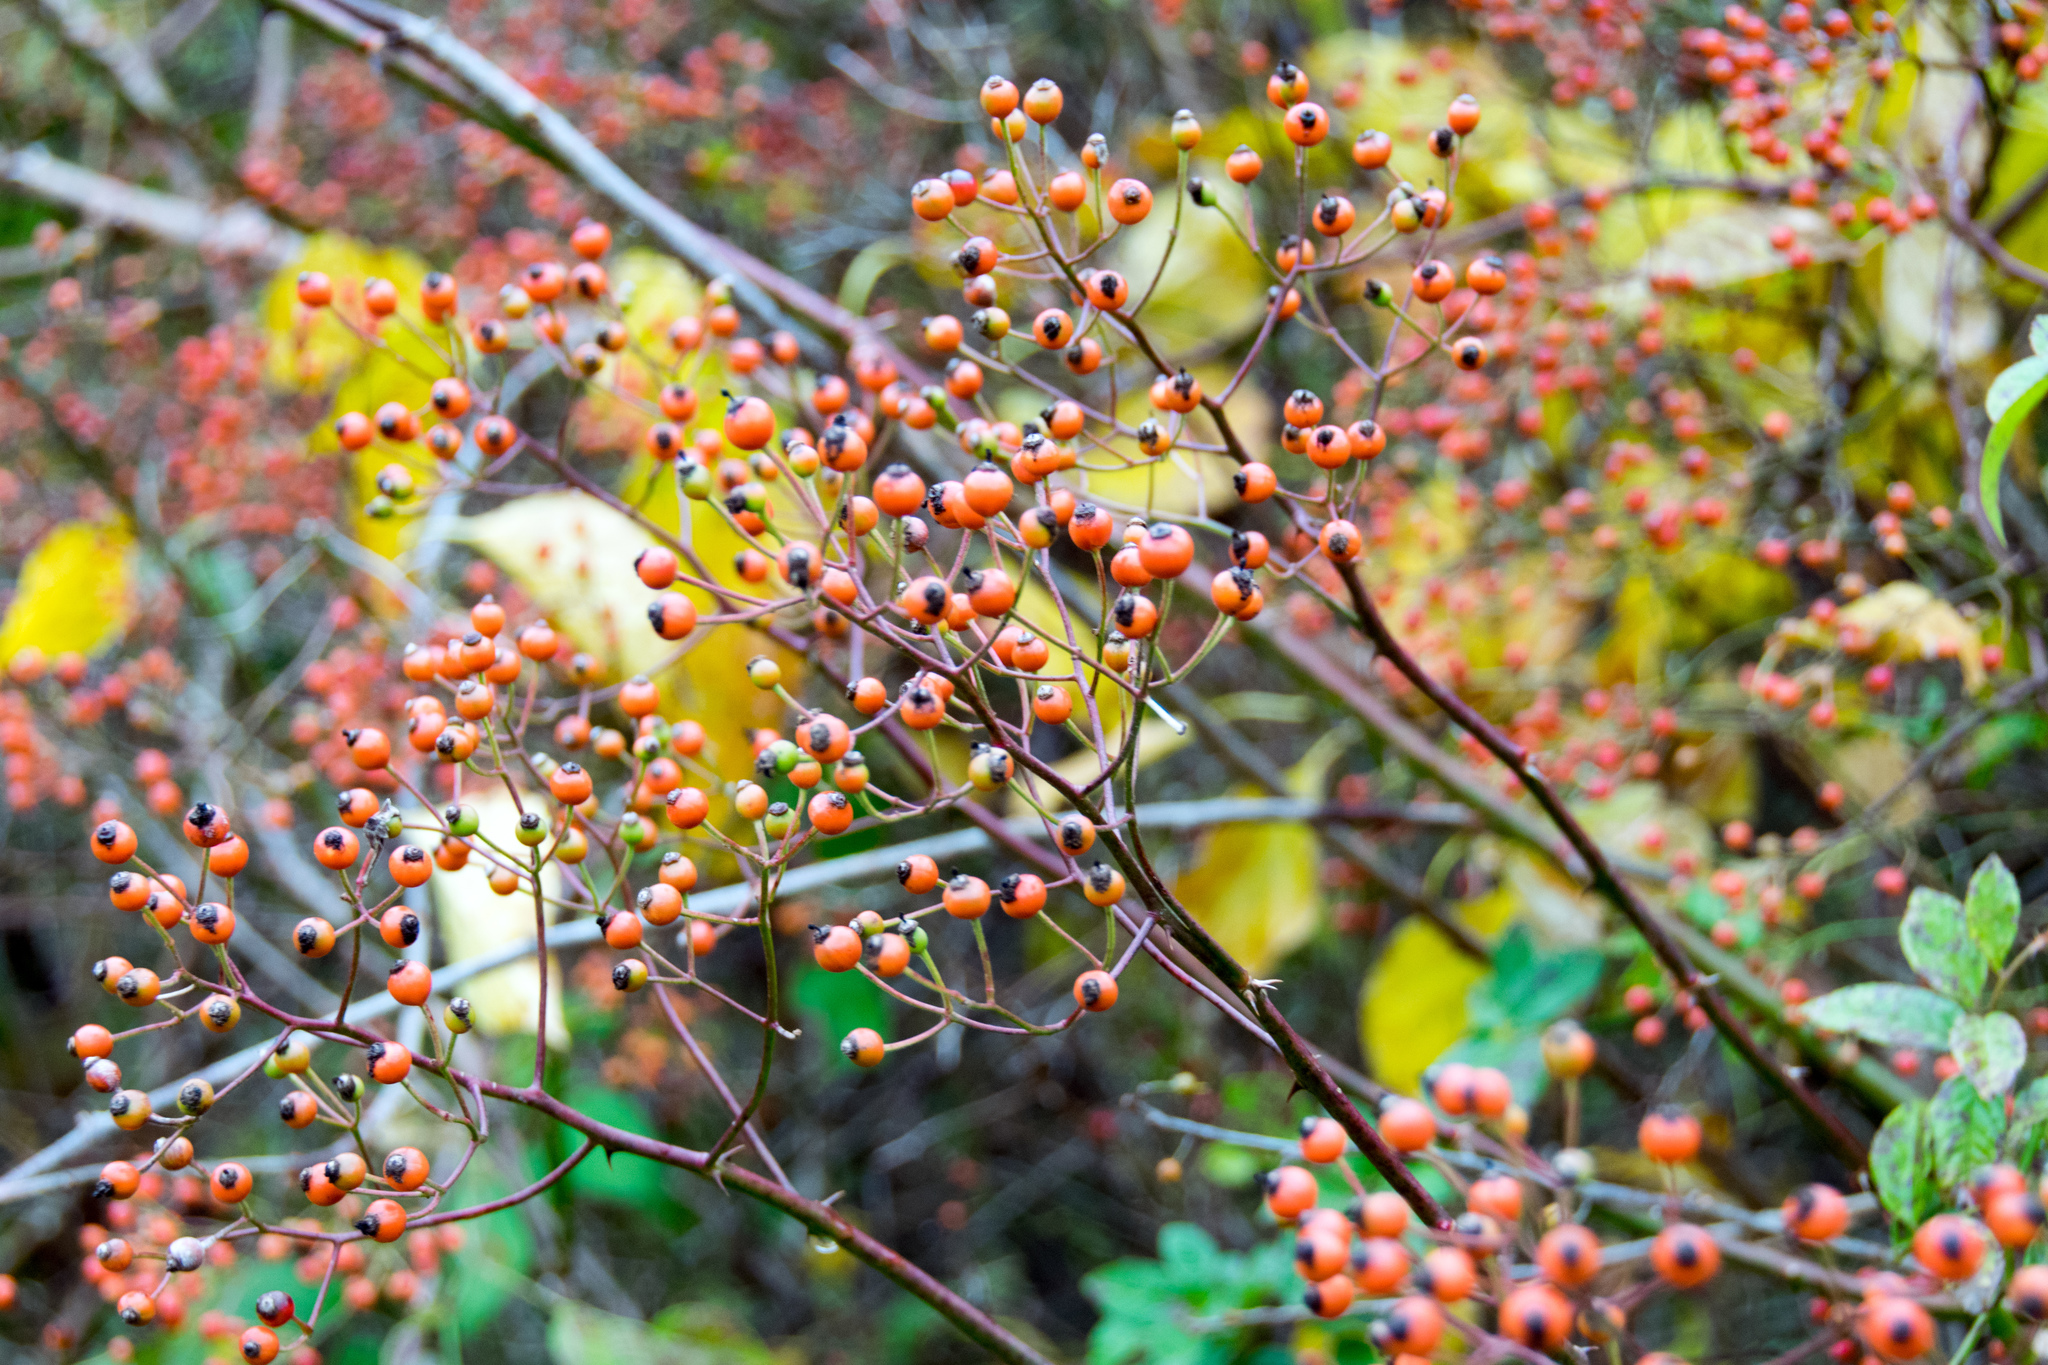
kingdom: Plantae
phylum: Tracheophyta
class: Magnoliopsida
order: Rosales
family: Rosaceae
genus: Rosa
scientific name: Rosa multiflora
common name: Multiflora rose
